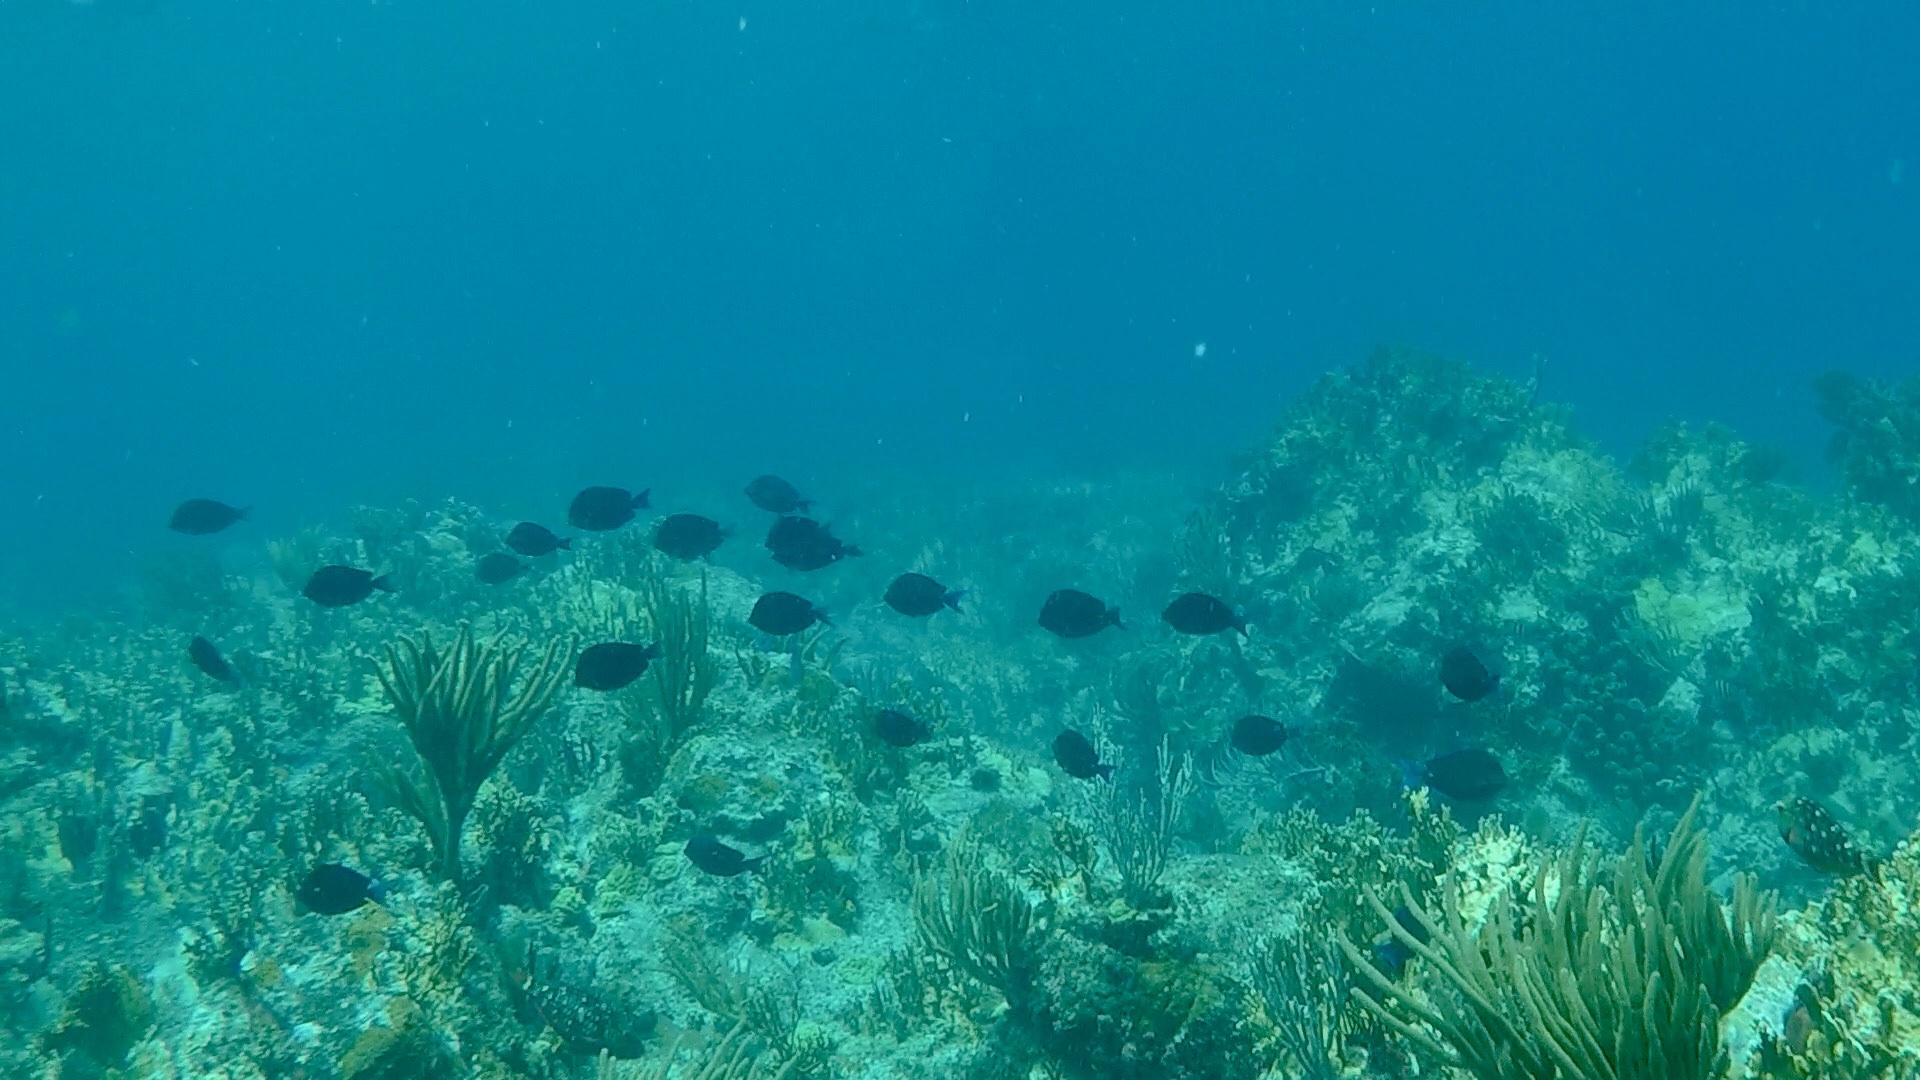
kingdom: Animalia
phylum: Chordata
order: Perciformes
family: Acanthuridae
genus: Acanthurus
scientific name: Acanthurus coeruleus
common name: Blue tang
